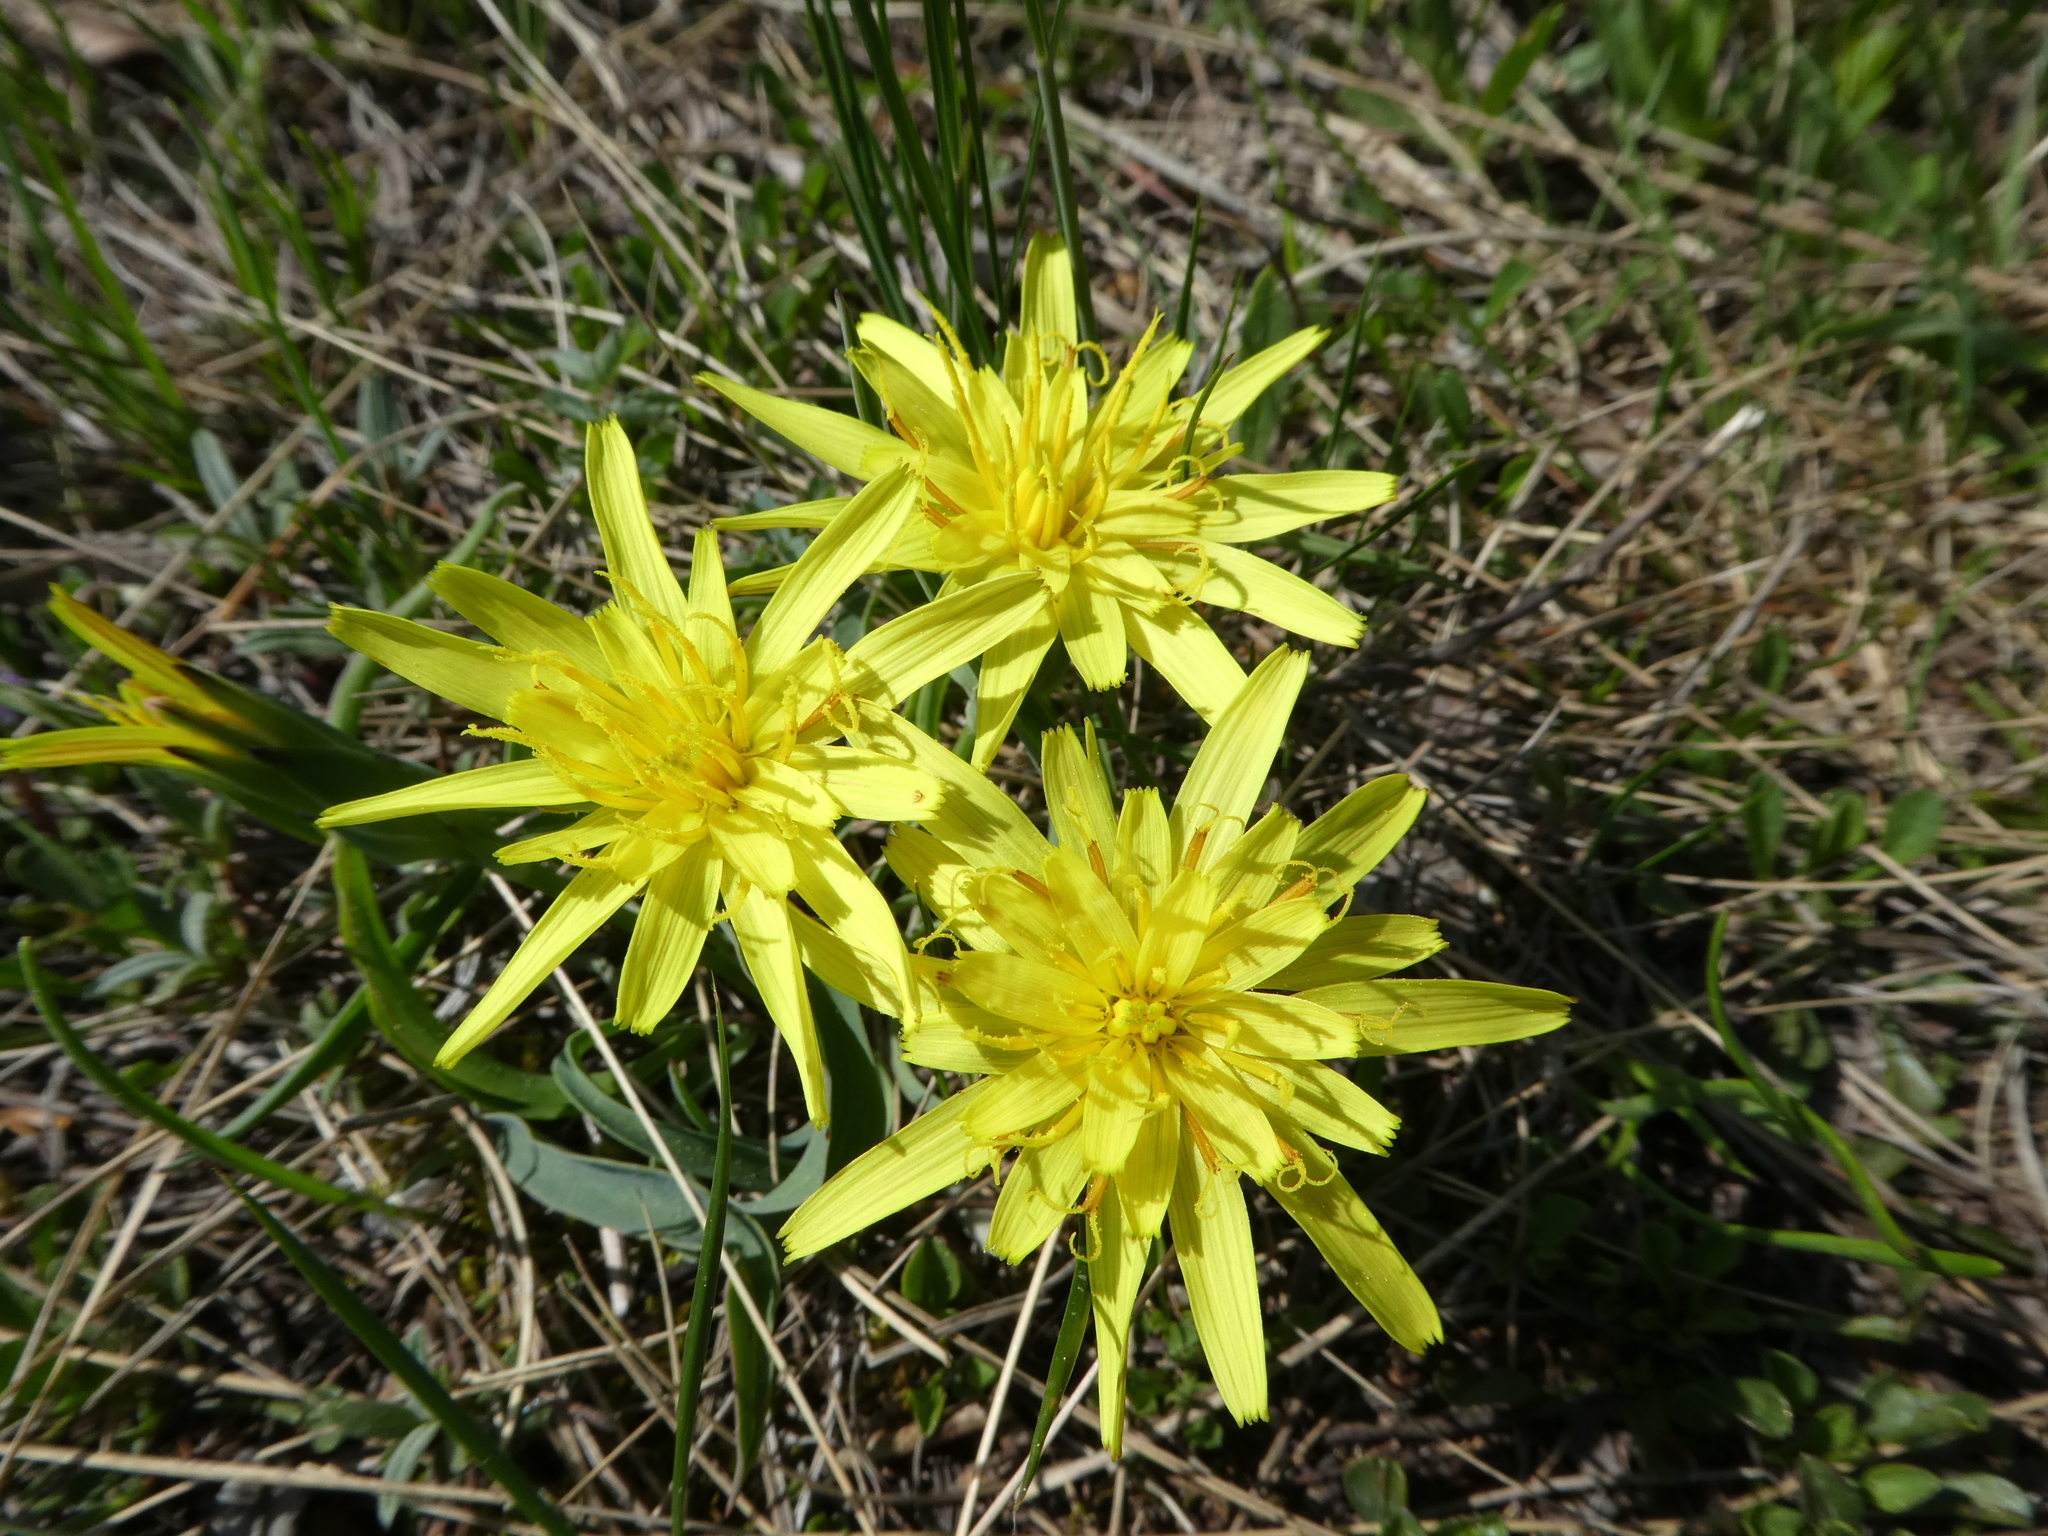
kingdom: Plantae
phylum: Tracheophyta
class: Magnoliopsida
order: Asterales
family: Asteraceae
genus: Takhtajaniantha
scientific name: Takhtajaniantha austriaca
